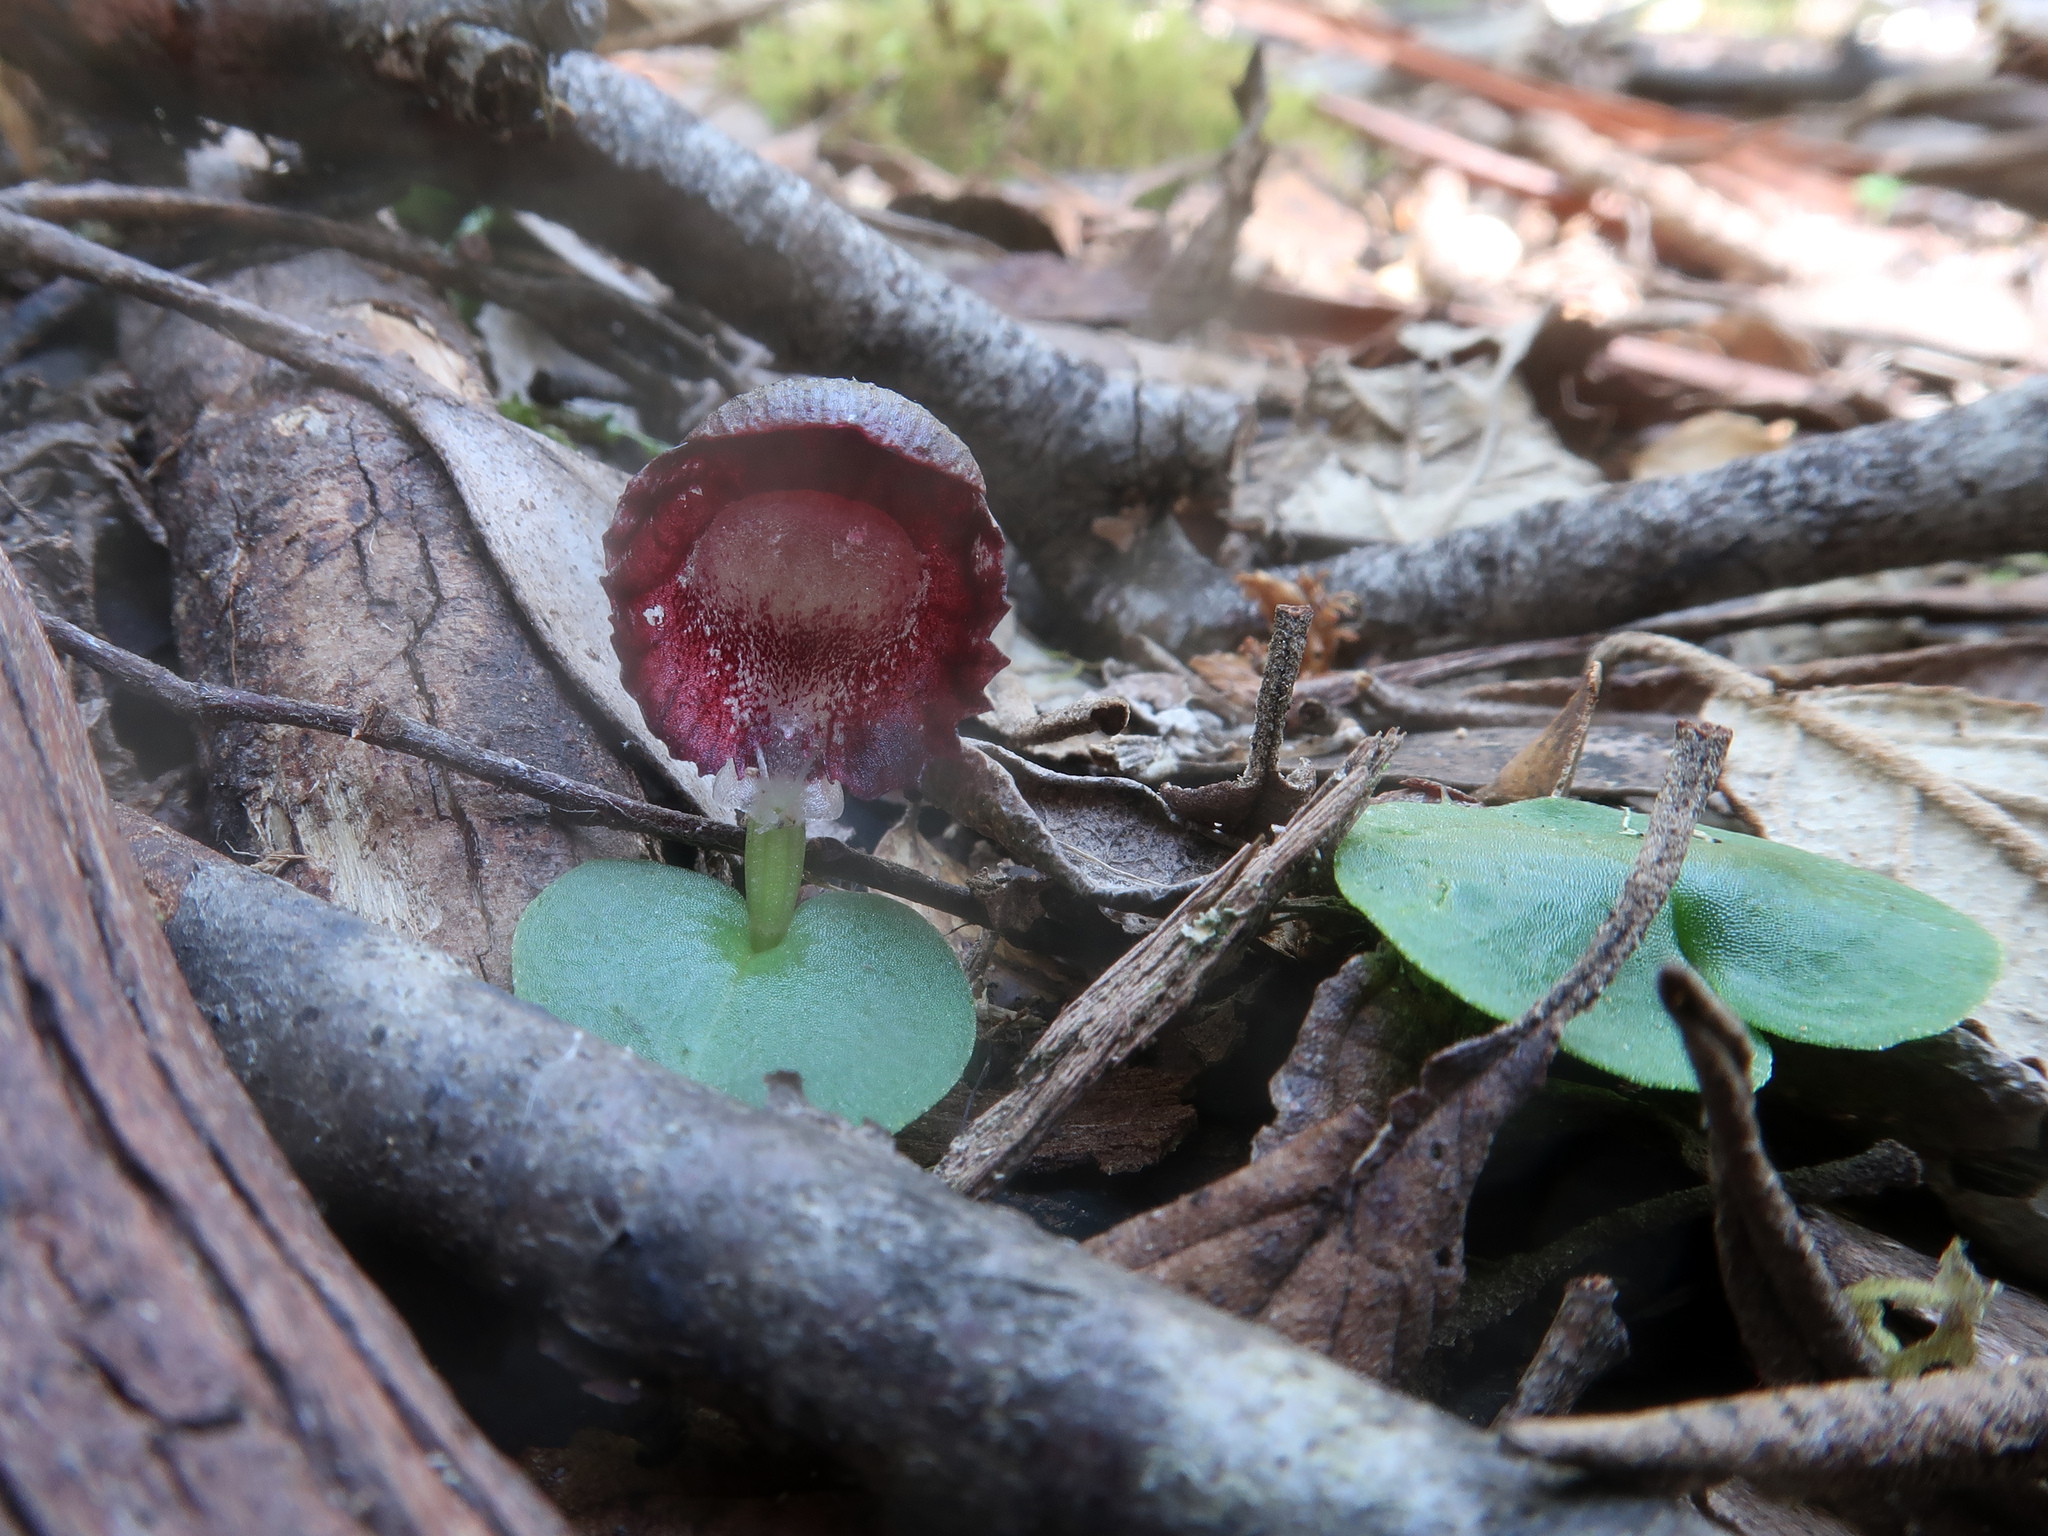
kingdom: Plantae
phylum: Tracheophyta
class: Liliopsida
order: Asparagales
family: Orchidaceae
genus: Corybas
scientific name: Corybas diemenicus
